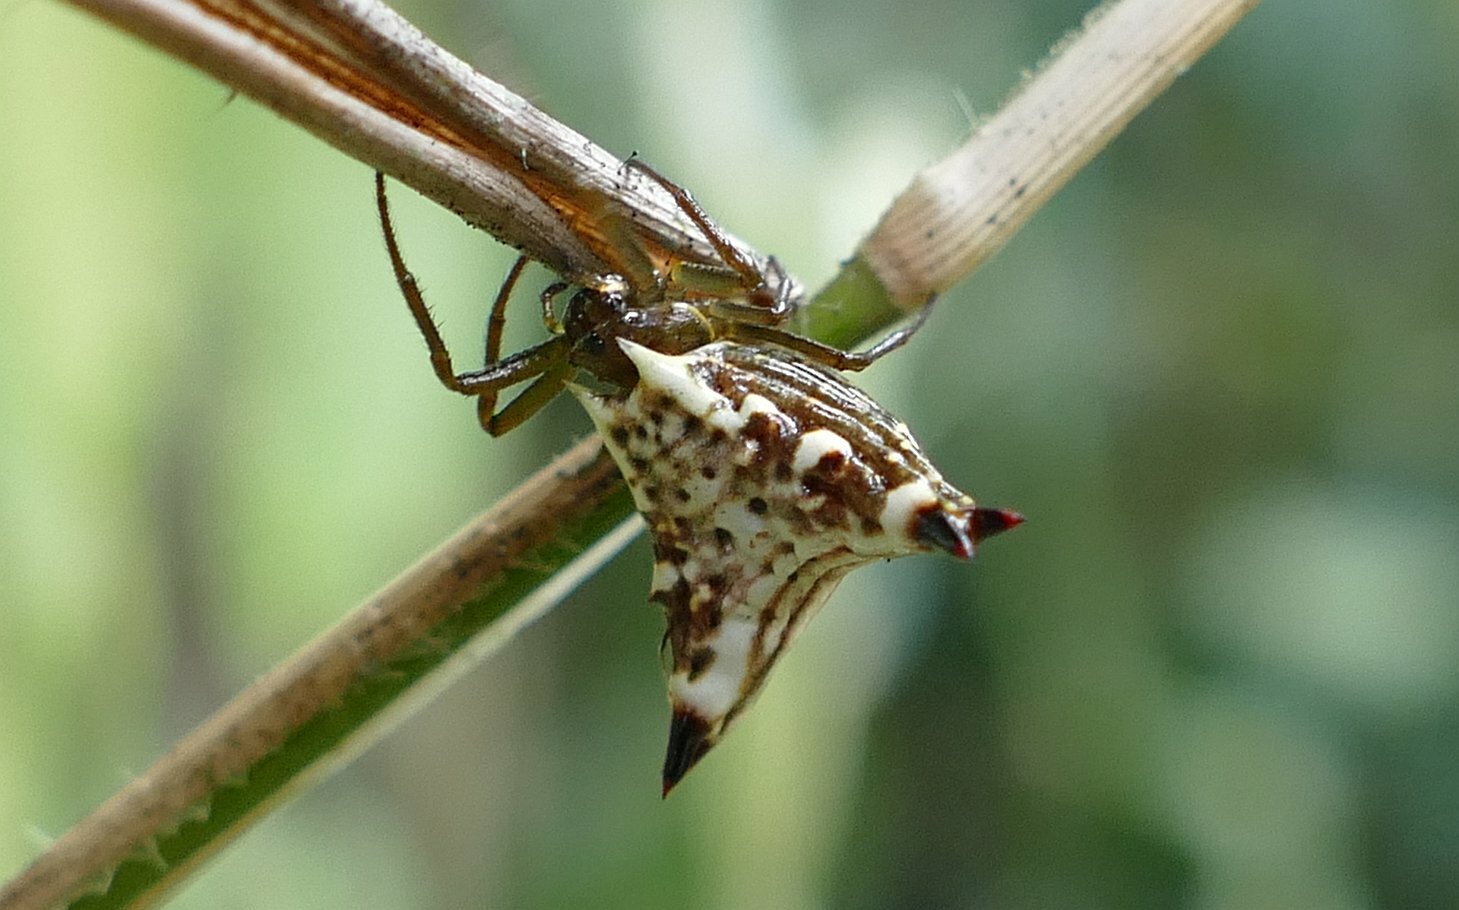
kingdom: Animalia
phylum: Arthropoda
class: Arachnida
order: Araneae
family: Araneidae
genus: Micrathena
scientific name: Micrathena lucasi
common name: Orb weavers
